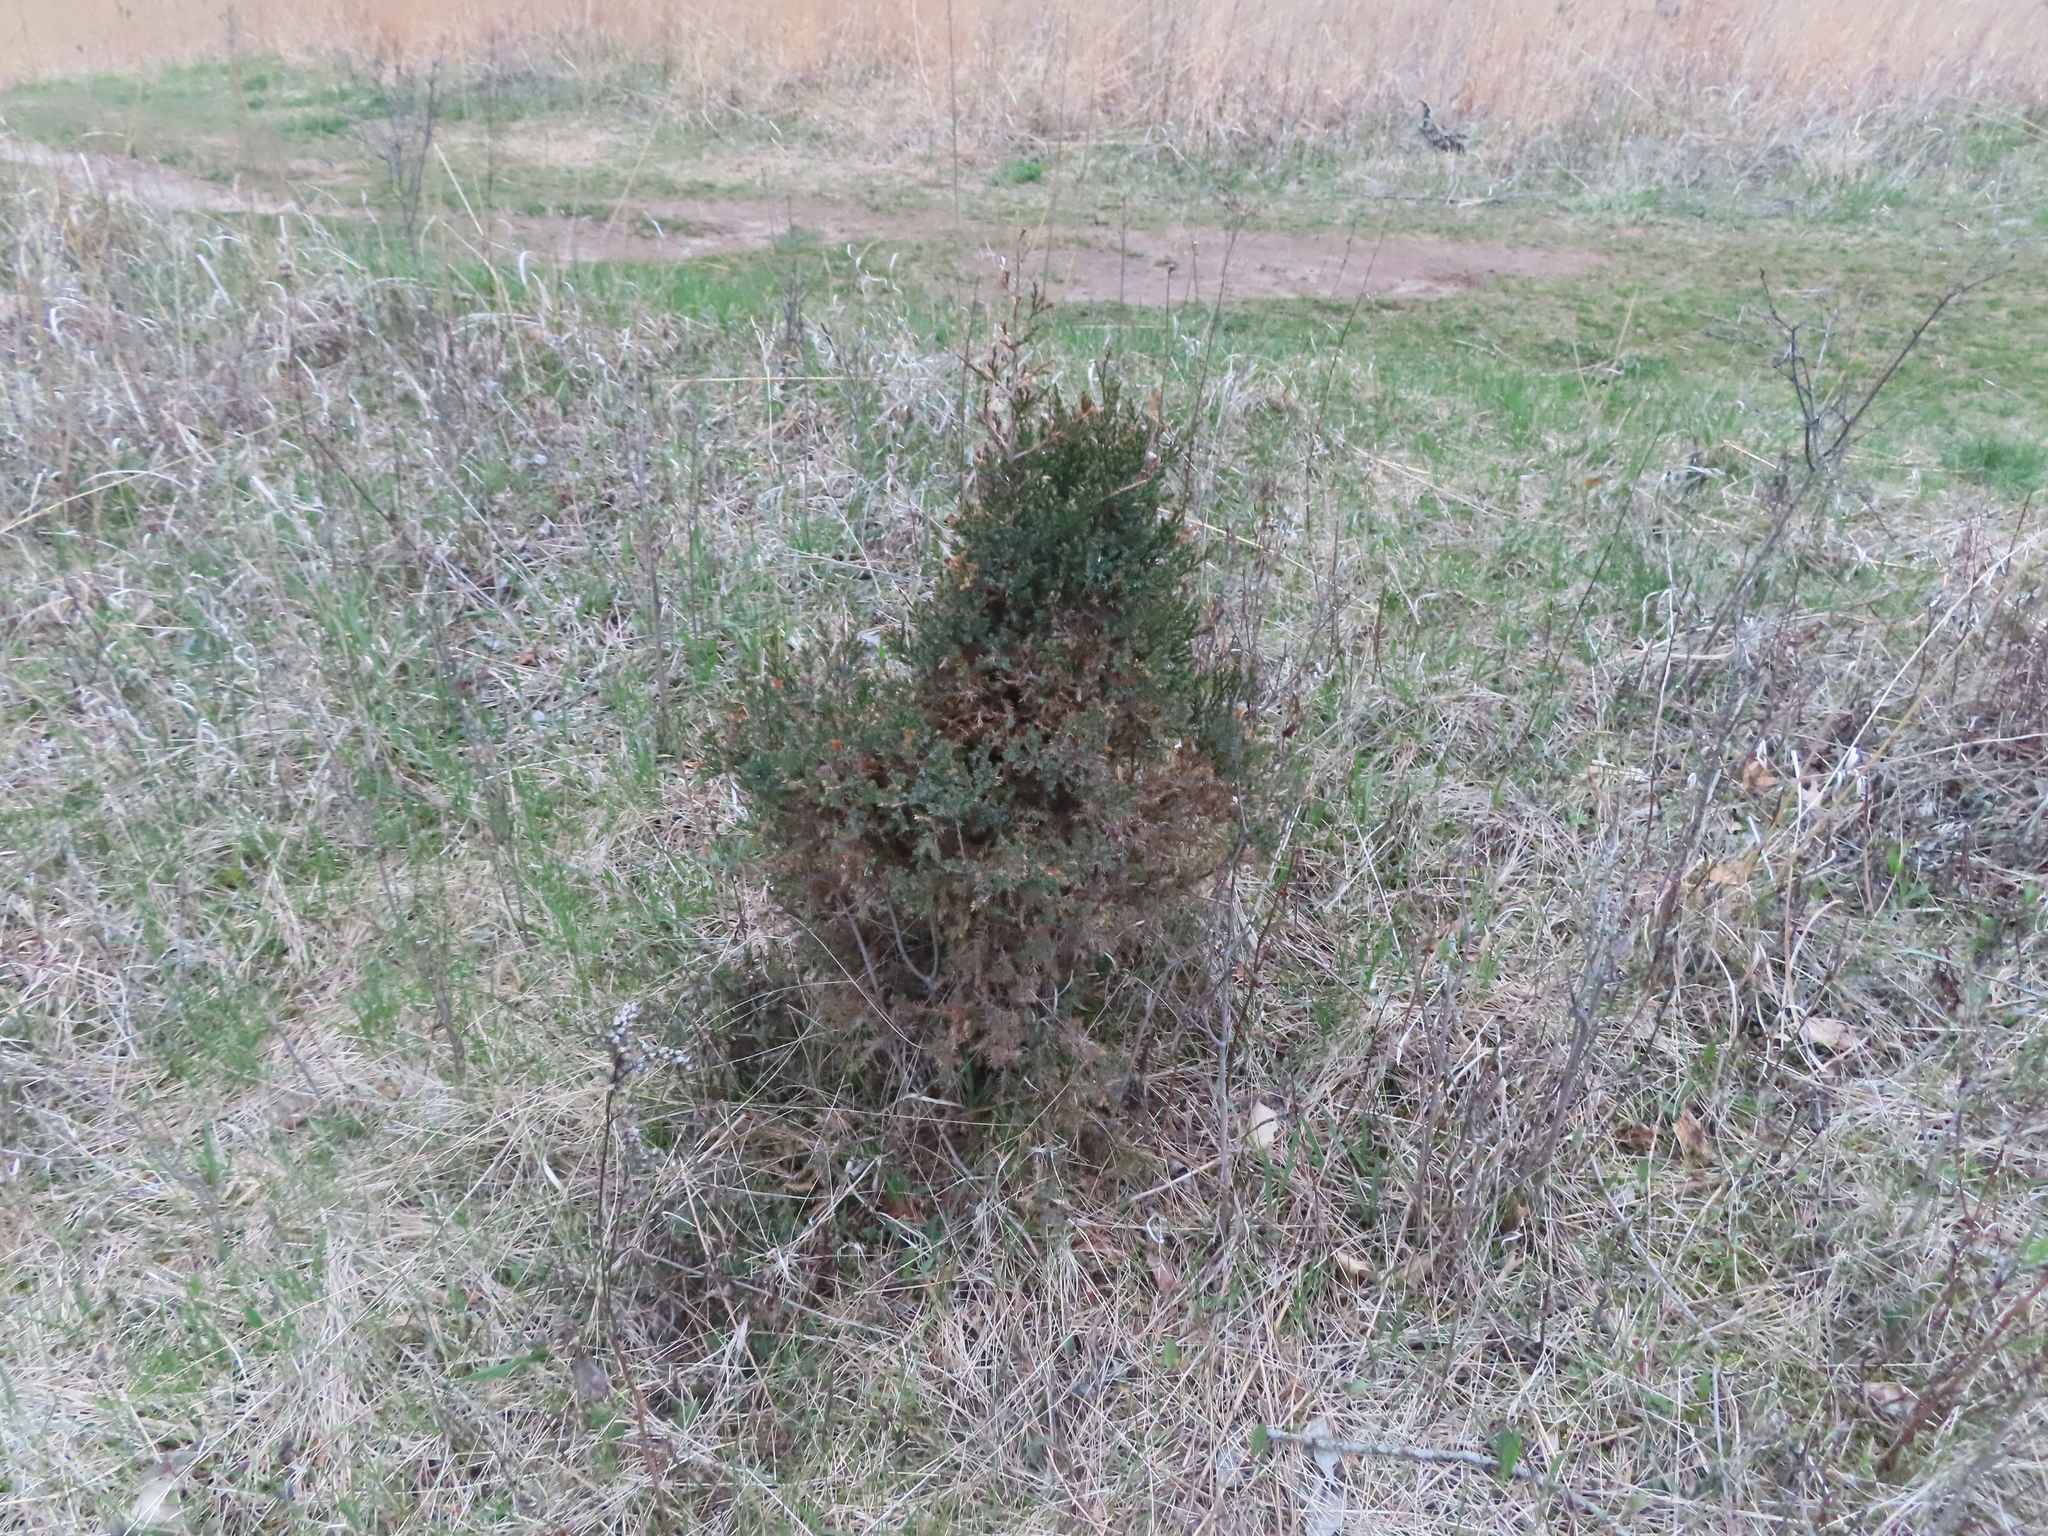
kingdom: Plantae
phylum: Tracheophyta
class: Pinopsida
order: Pinales
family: Cupressaceae
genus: Juniperus
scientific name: Juniperus virginiana
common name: Red juniper
